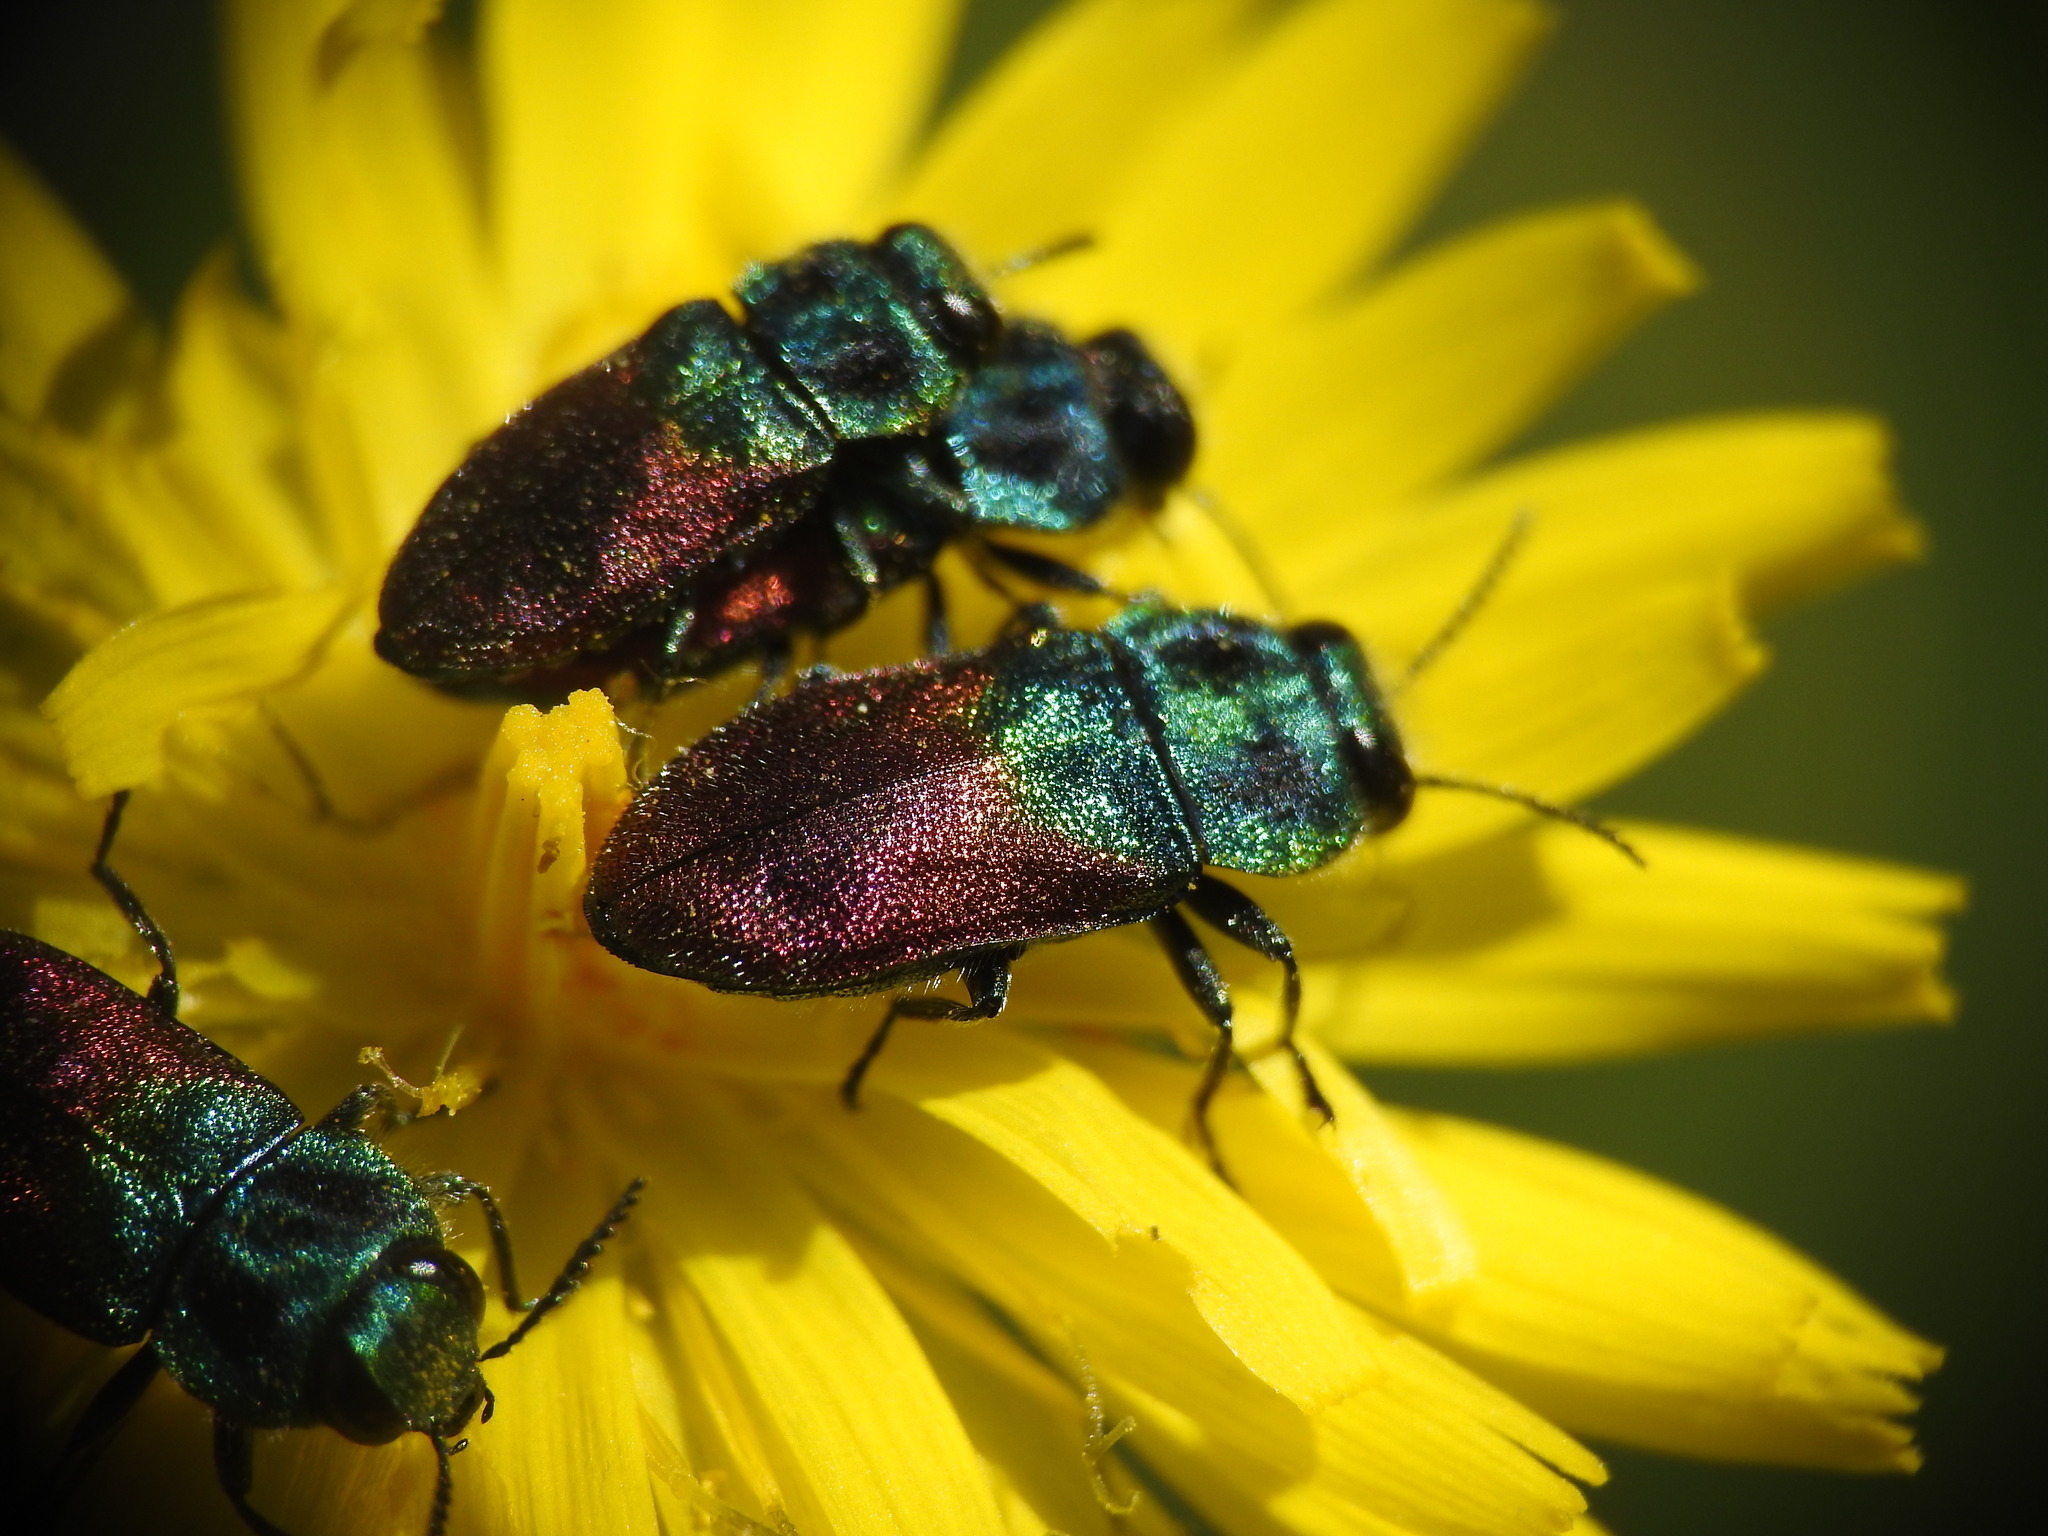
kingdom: Animalia
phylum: Arthropoda
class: Insecta
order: Coleoptera
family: Buprestidae
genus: Anthaxia
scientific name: Anthaxia salicis
